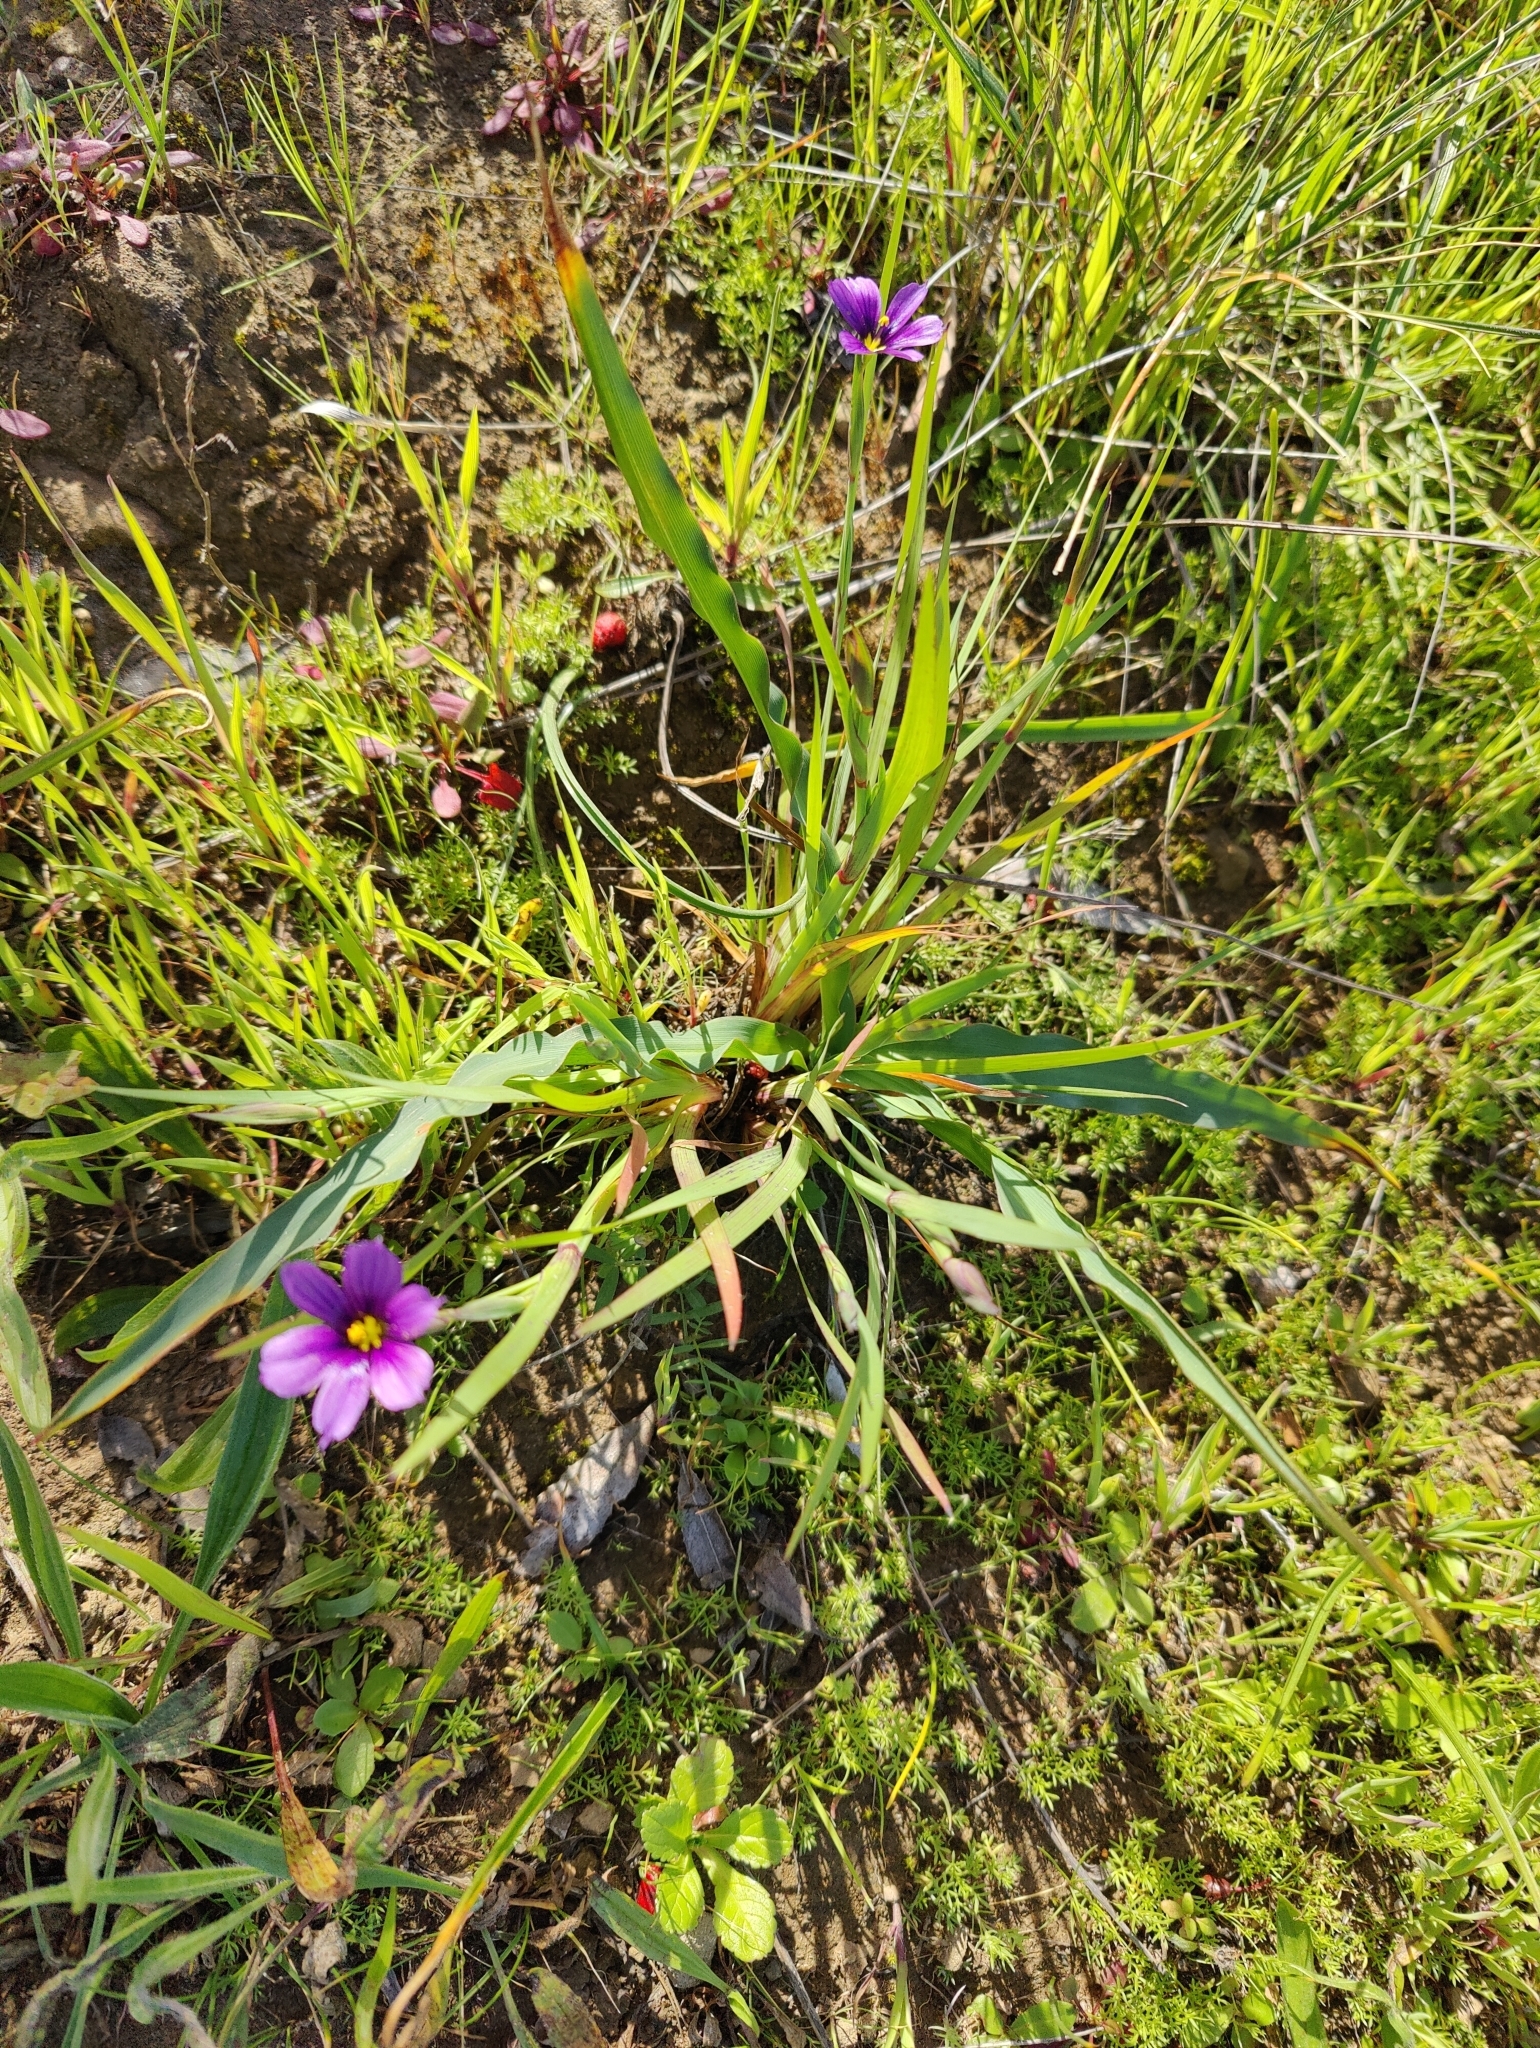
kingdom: Plantae
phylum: Tracheophyta
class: Liliopsida
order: Asparagales
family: Iridaceae
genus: Sisyrinchium
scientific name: Sisyrinchium bellum
